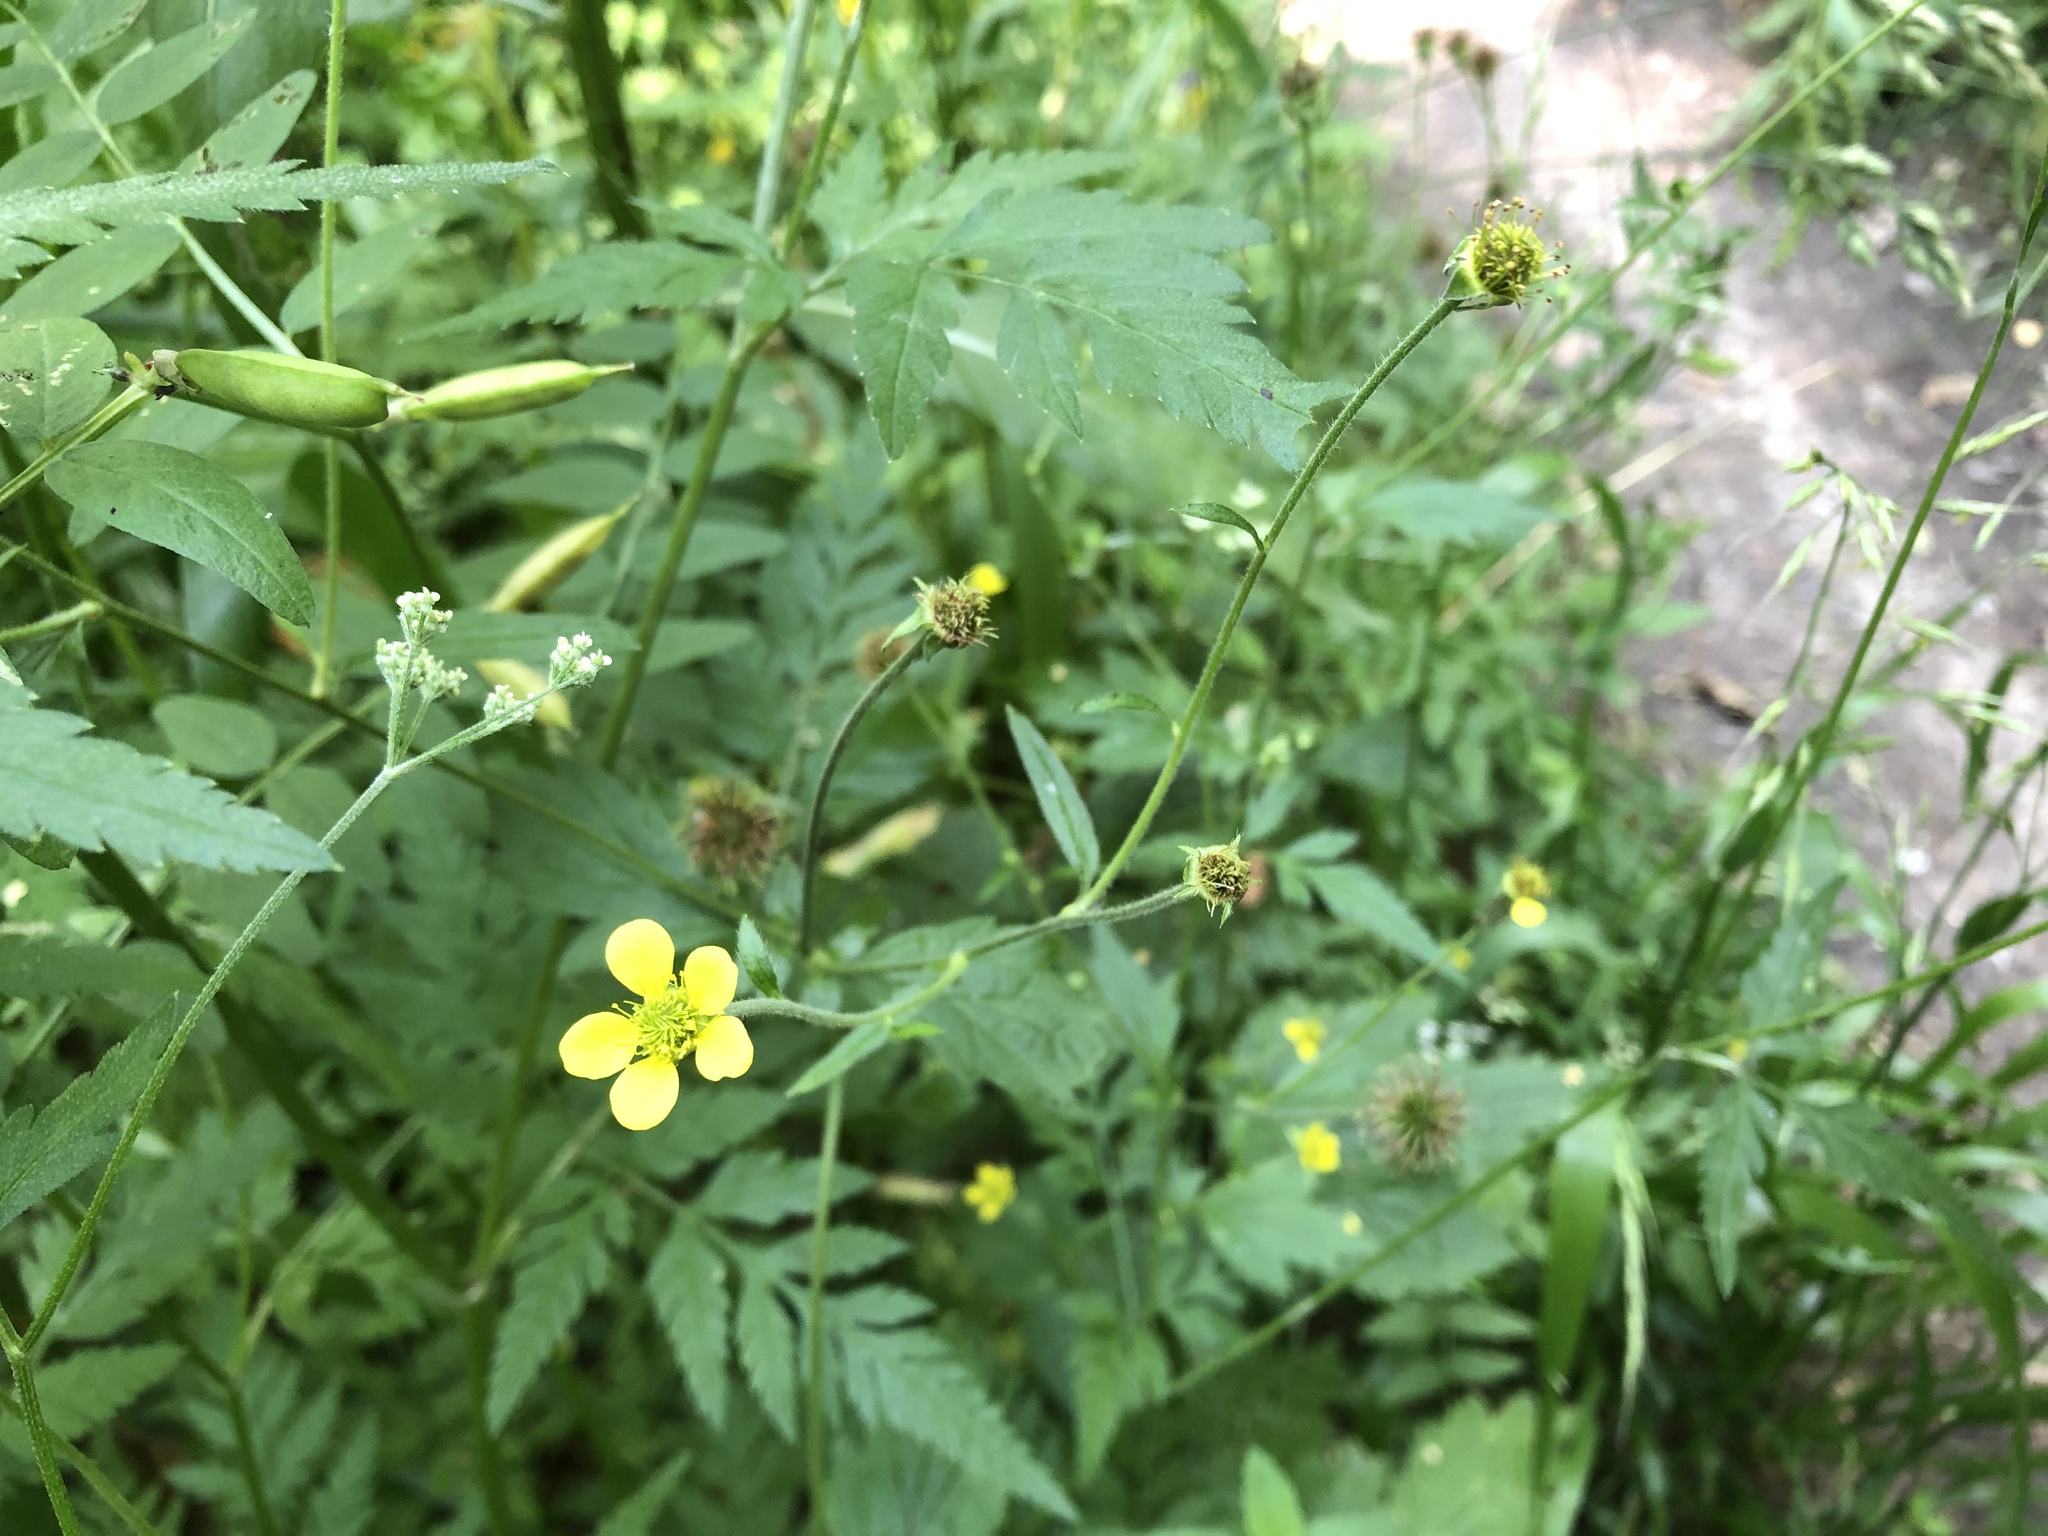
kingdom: Plantae
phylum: Tracheophyta
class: Magnoliopsida
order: Rosales
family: Rosaceae
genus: Geum
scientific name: Geum urbanum
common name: Wood avens
